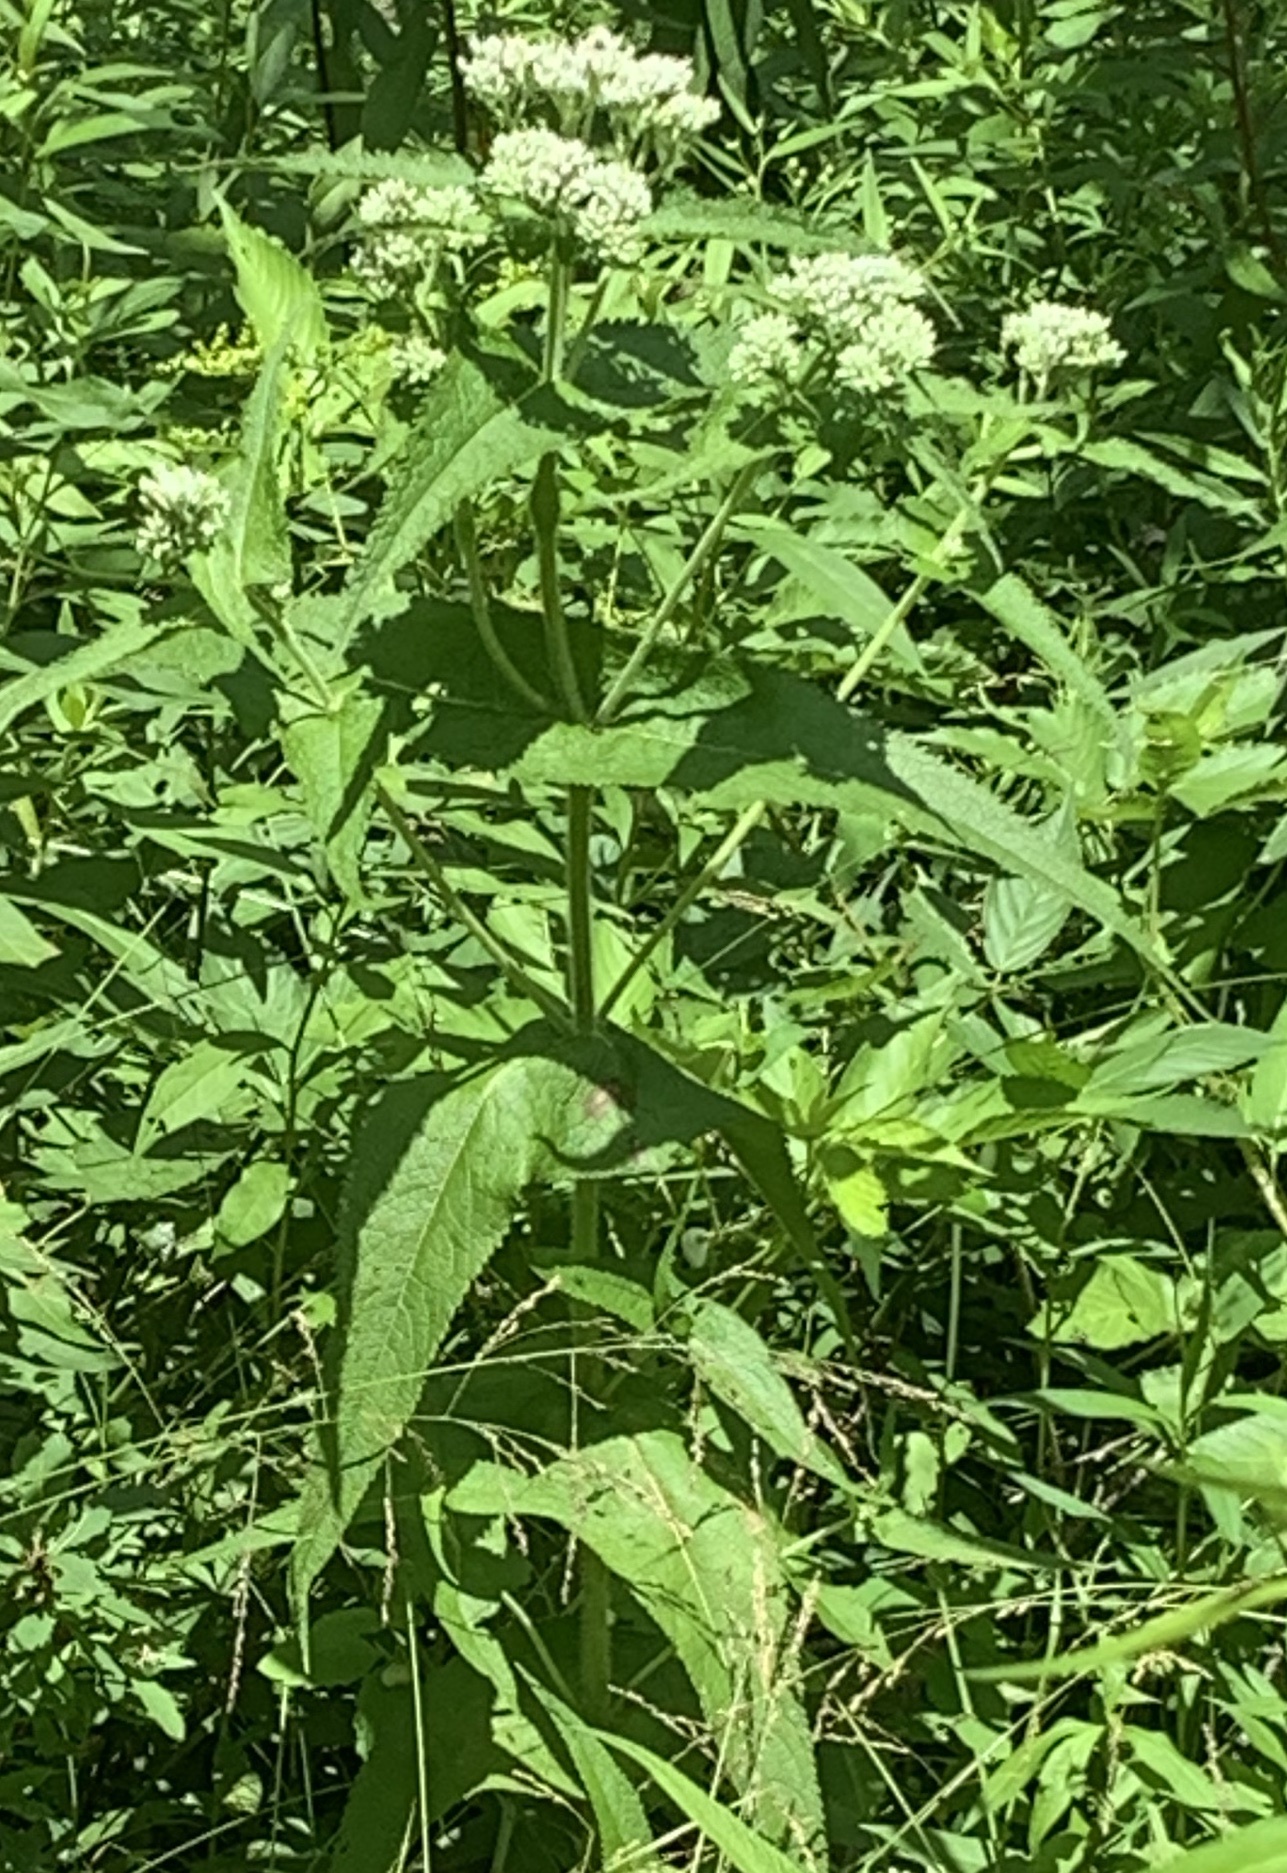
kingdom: Plantae
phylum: Tracheophyta
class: Magnoliopsida
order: Asterales
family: Asteraceae
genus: Eupatorium
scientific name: Eupatorium perfoliatum
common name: Boneset
